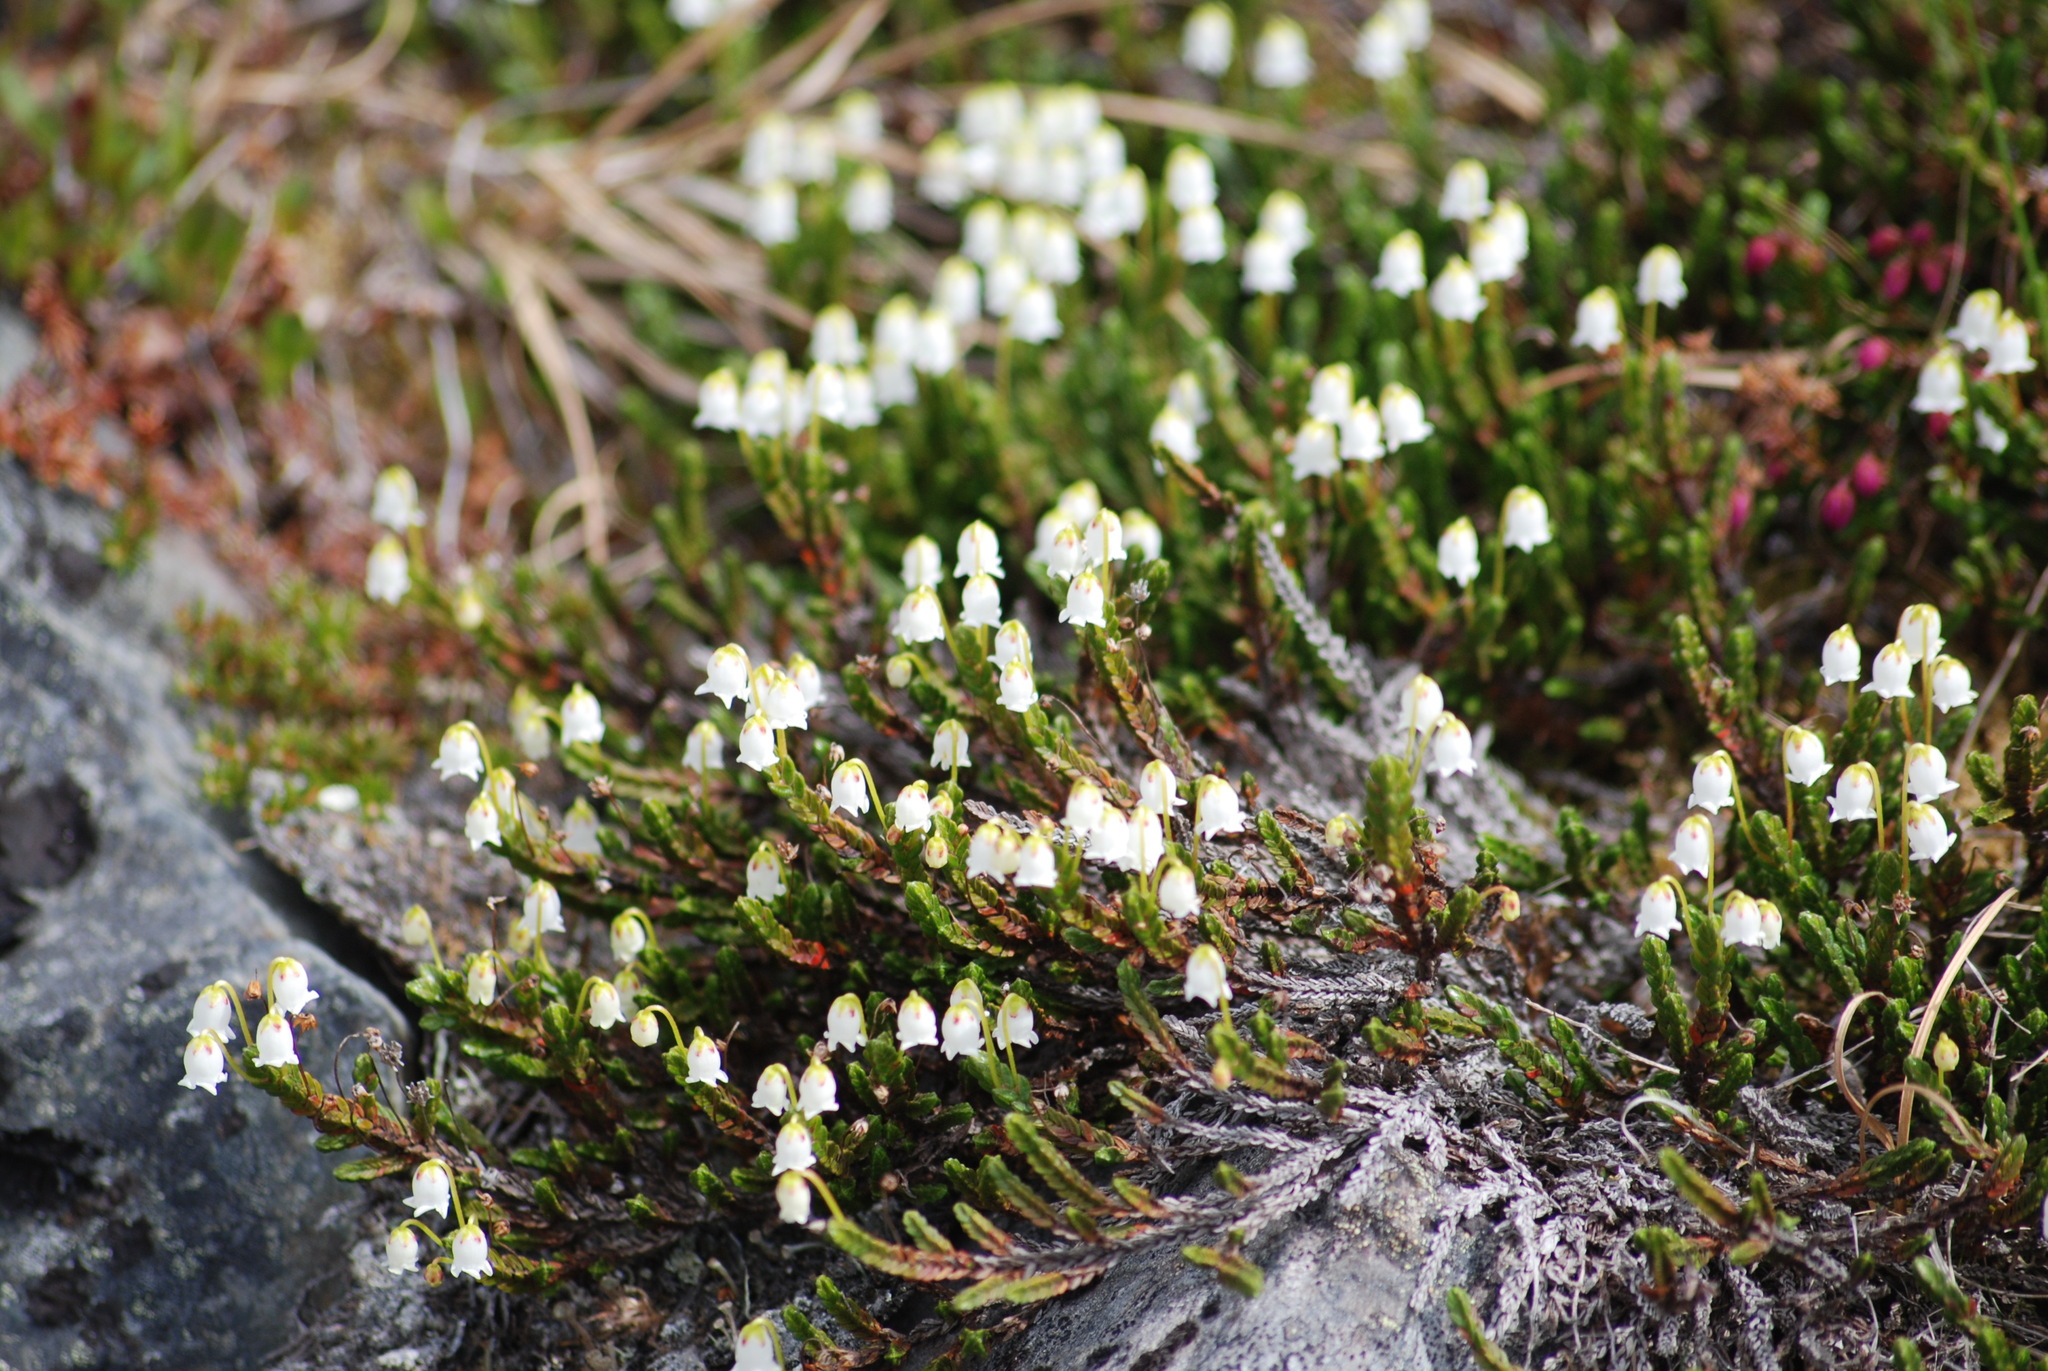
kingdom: Plantae
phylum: Tracheophyta
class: Magnoliopsida
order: Ericales
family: Ericaceae
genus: Cassiope
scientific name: Cassiope tetragona
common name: Arctic bell heather
